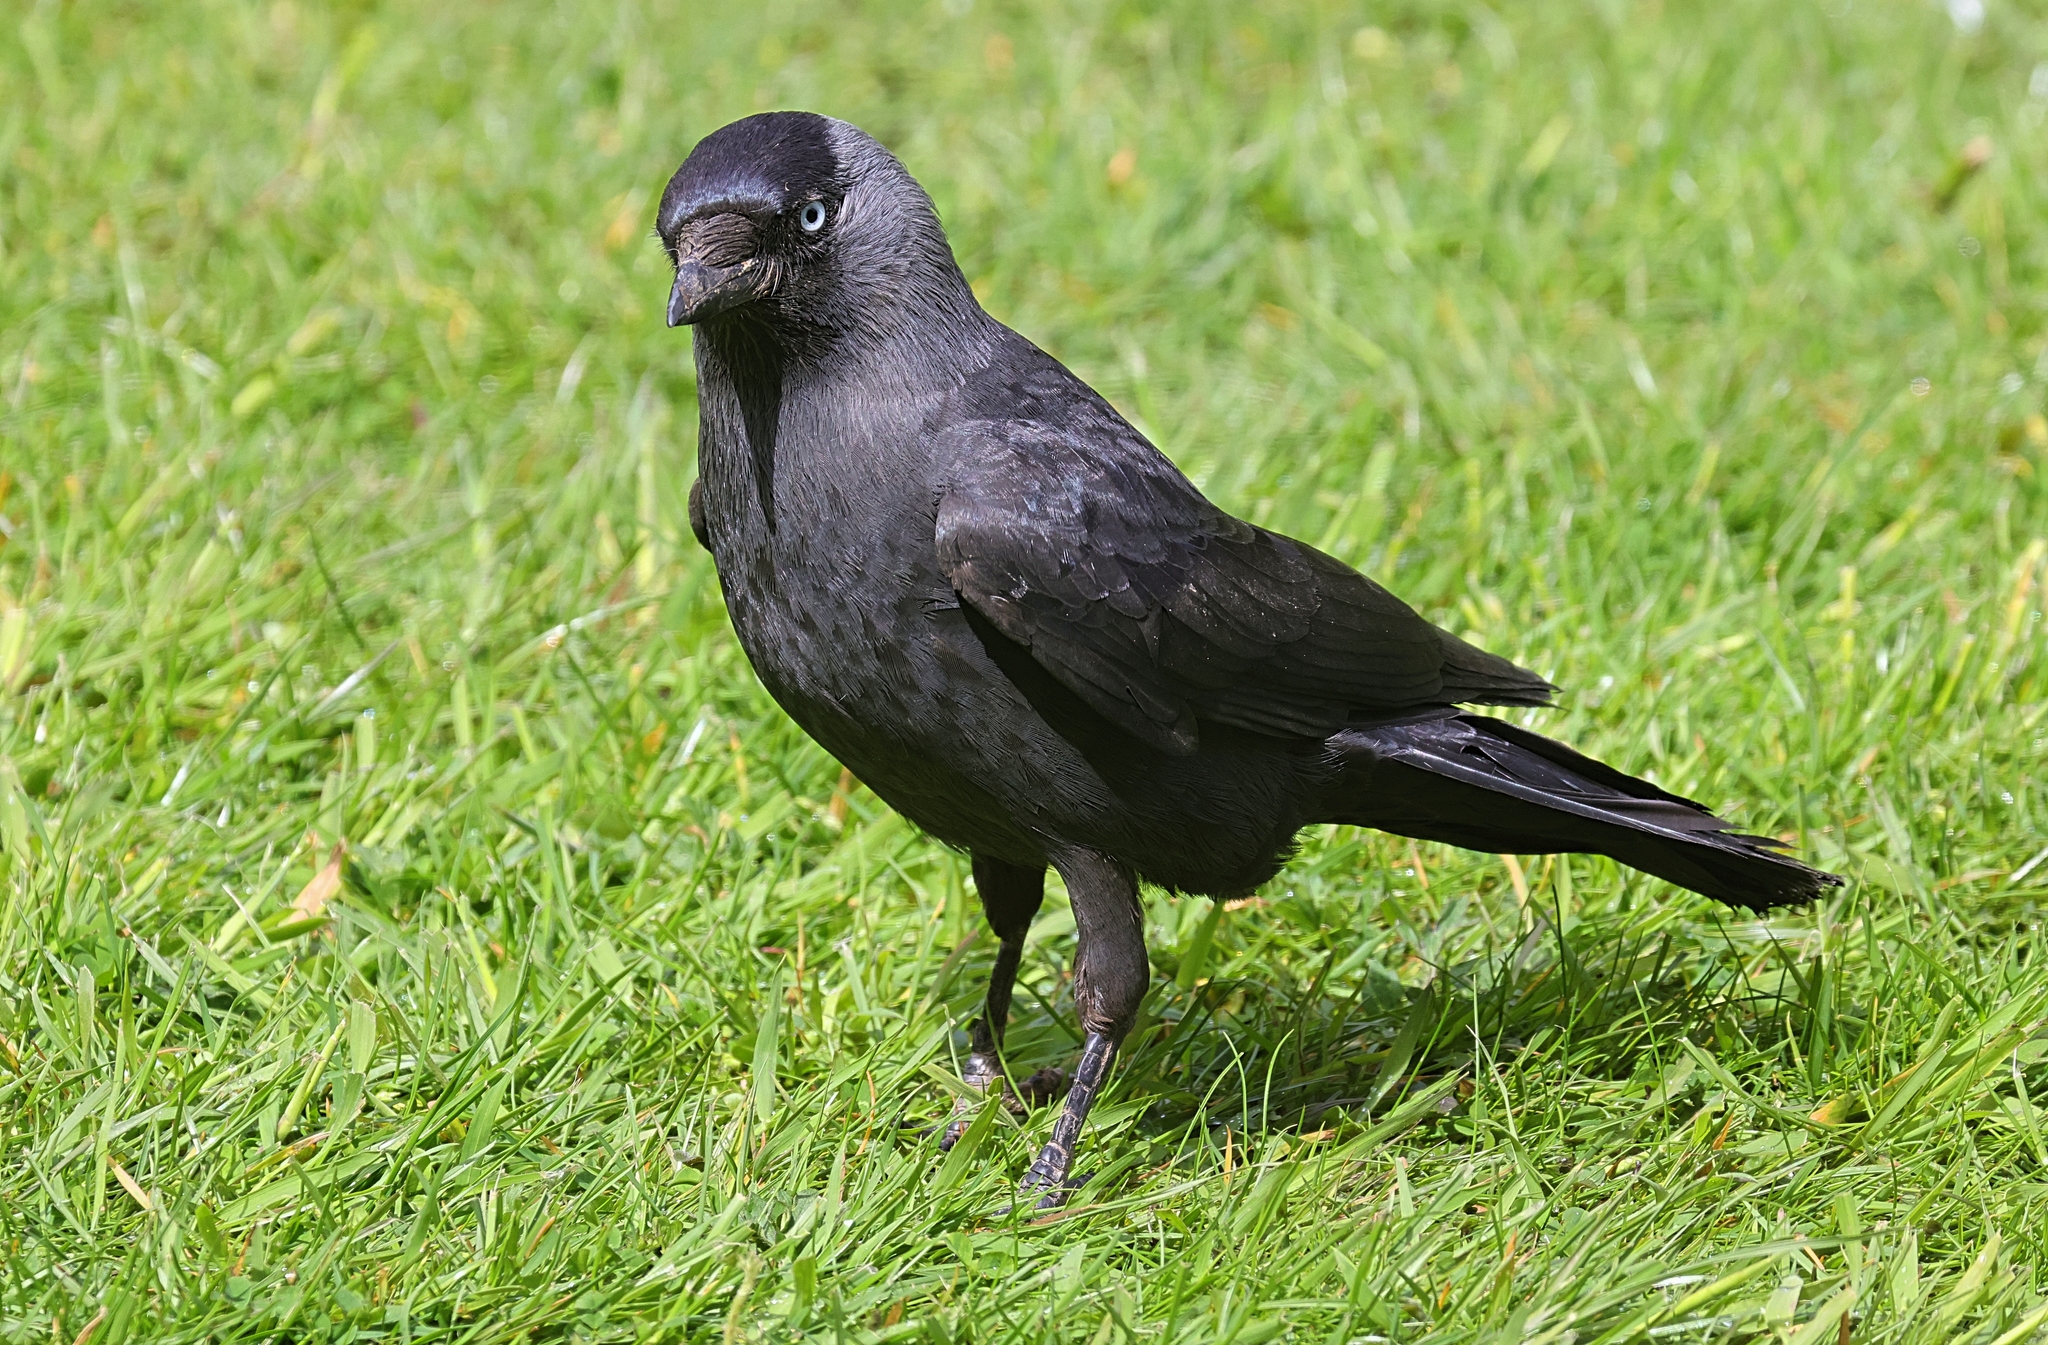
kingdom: Animalia
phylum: Chordata
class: Aves
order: Passeriformes
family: Corvidae
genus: Coloeus
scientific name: Coloeus monedula
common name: Western jackdaw
